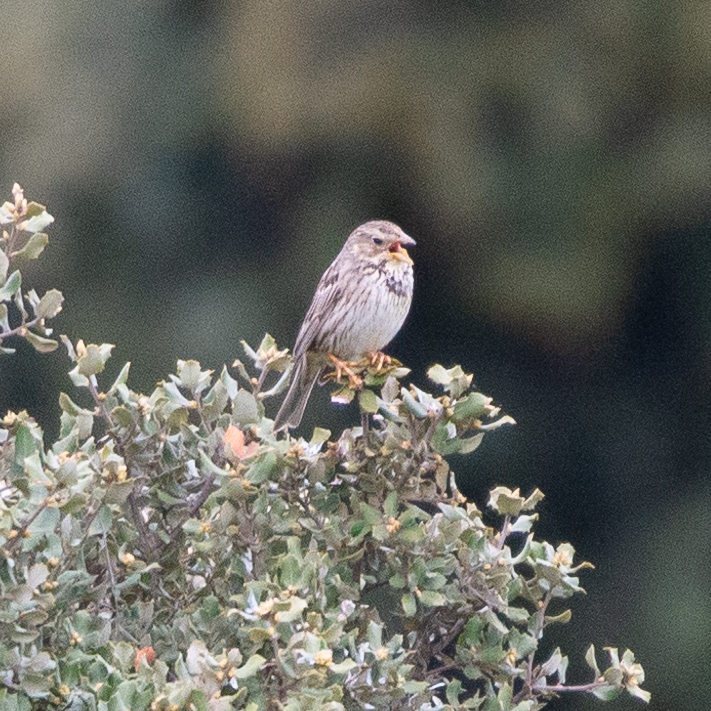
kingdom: Animalia
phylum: Chordata
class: Aves
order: Passeriformes
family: Emberizidae
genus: Emberiza
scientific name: Emberiza calandra
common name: Corn bunting
